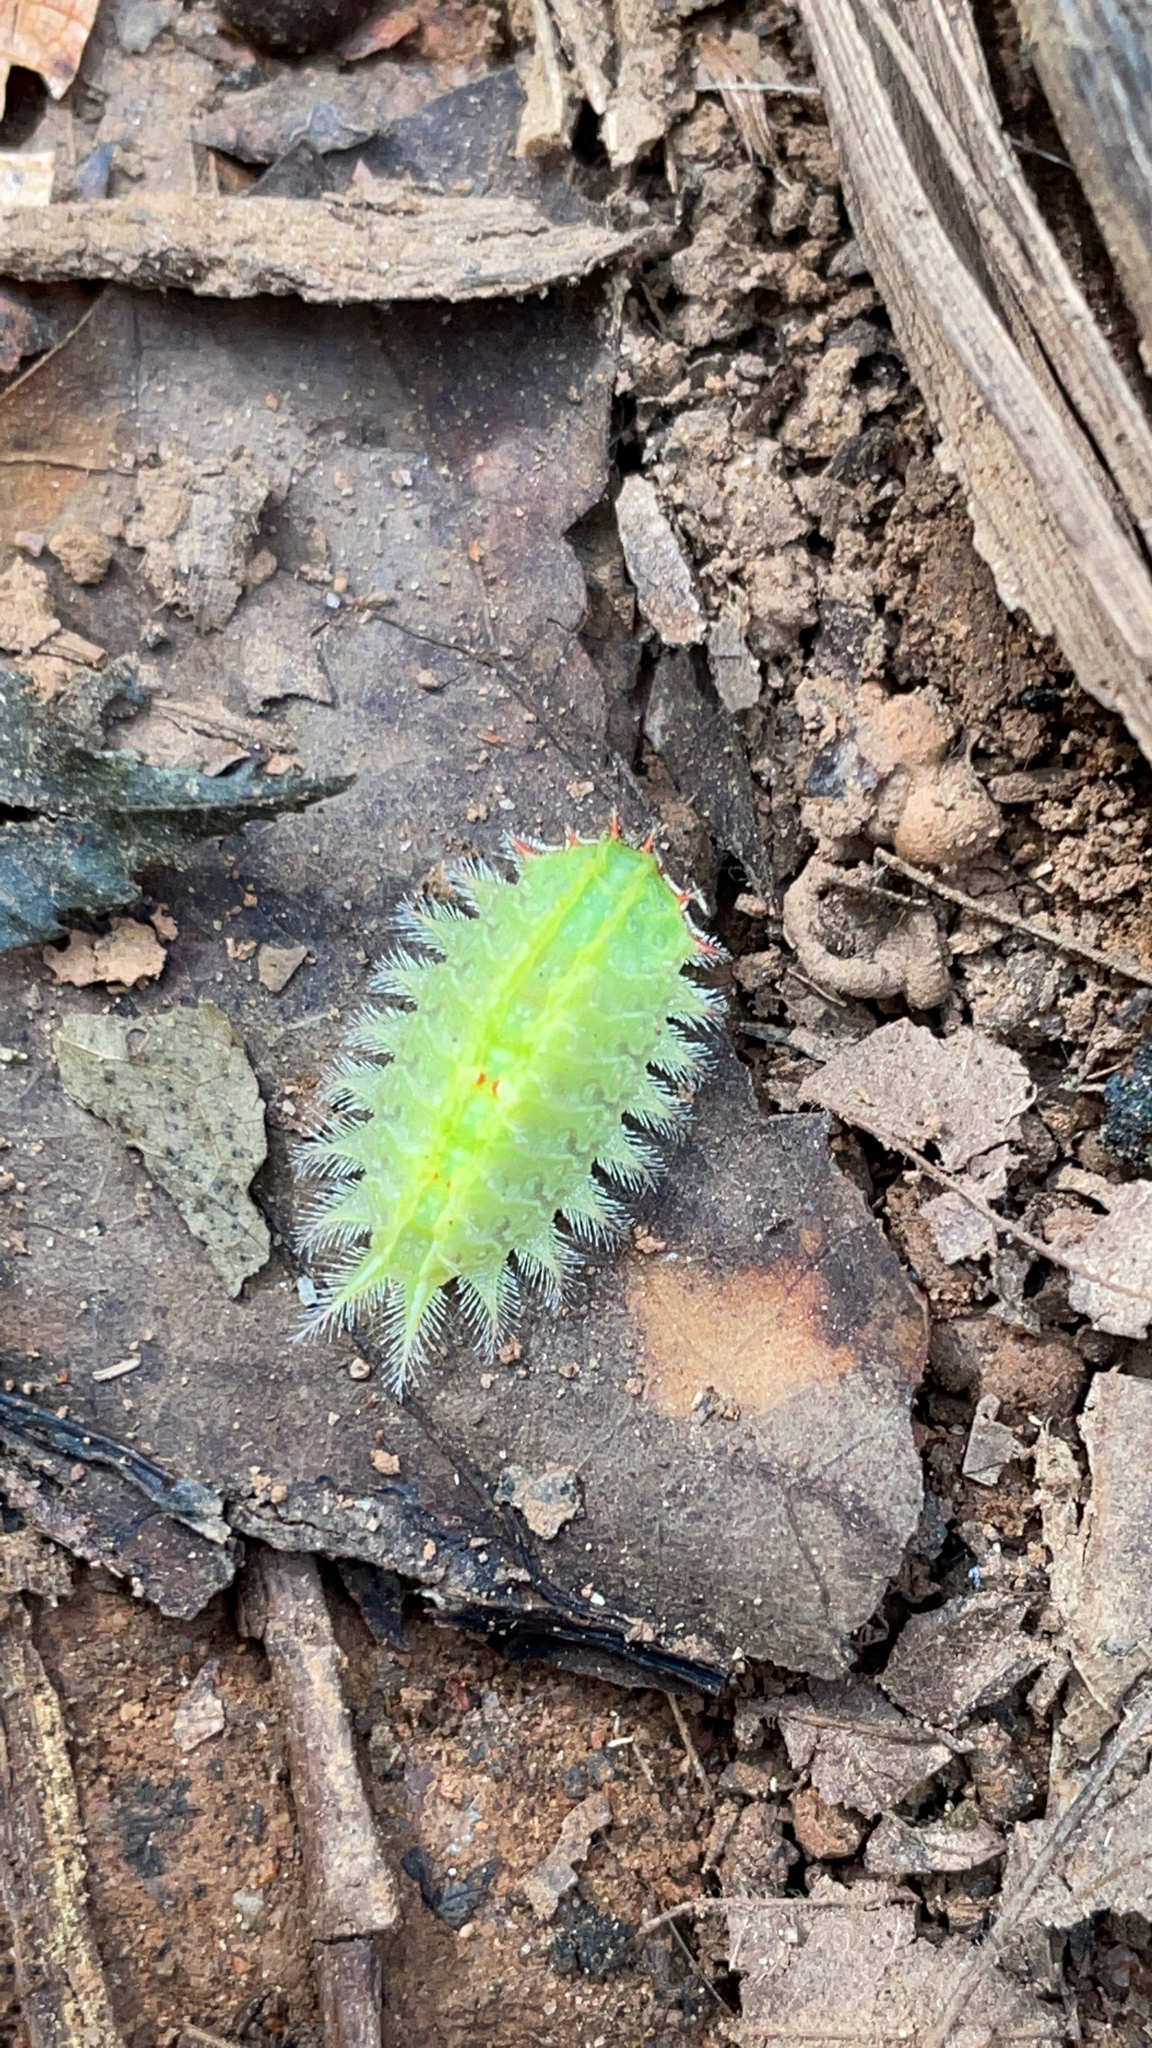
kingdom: Animalia
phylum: Arthropoda
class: Insecta
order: Lepidoptera
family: Limacodidae
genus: Isa
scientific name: Isa textula
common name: Crowned slug moth
